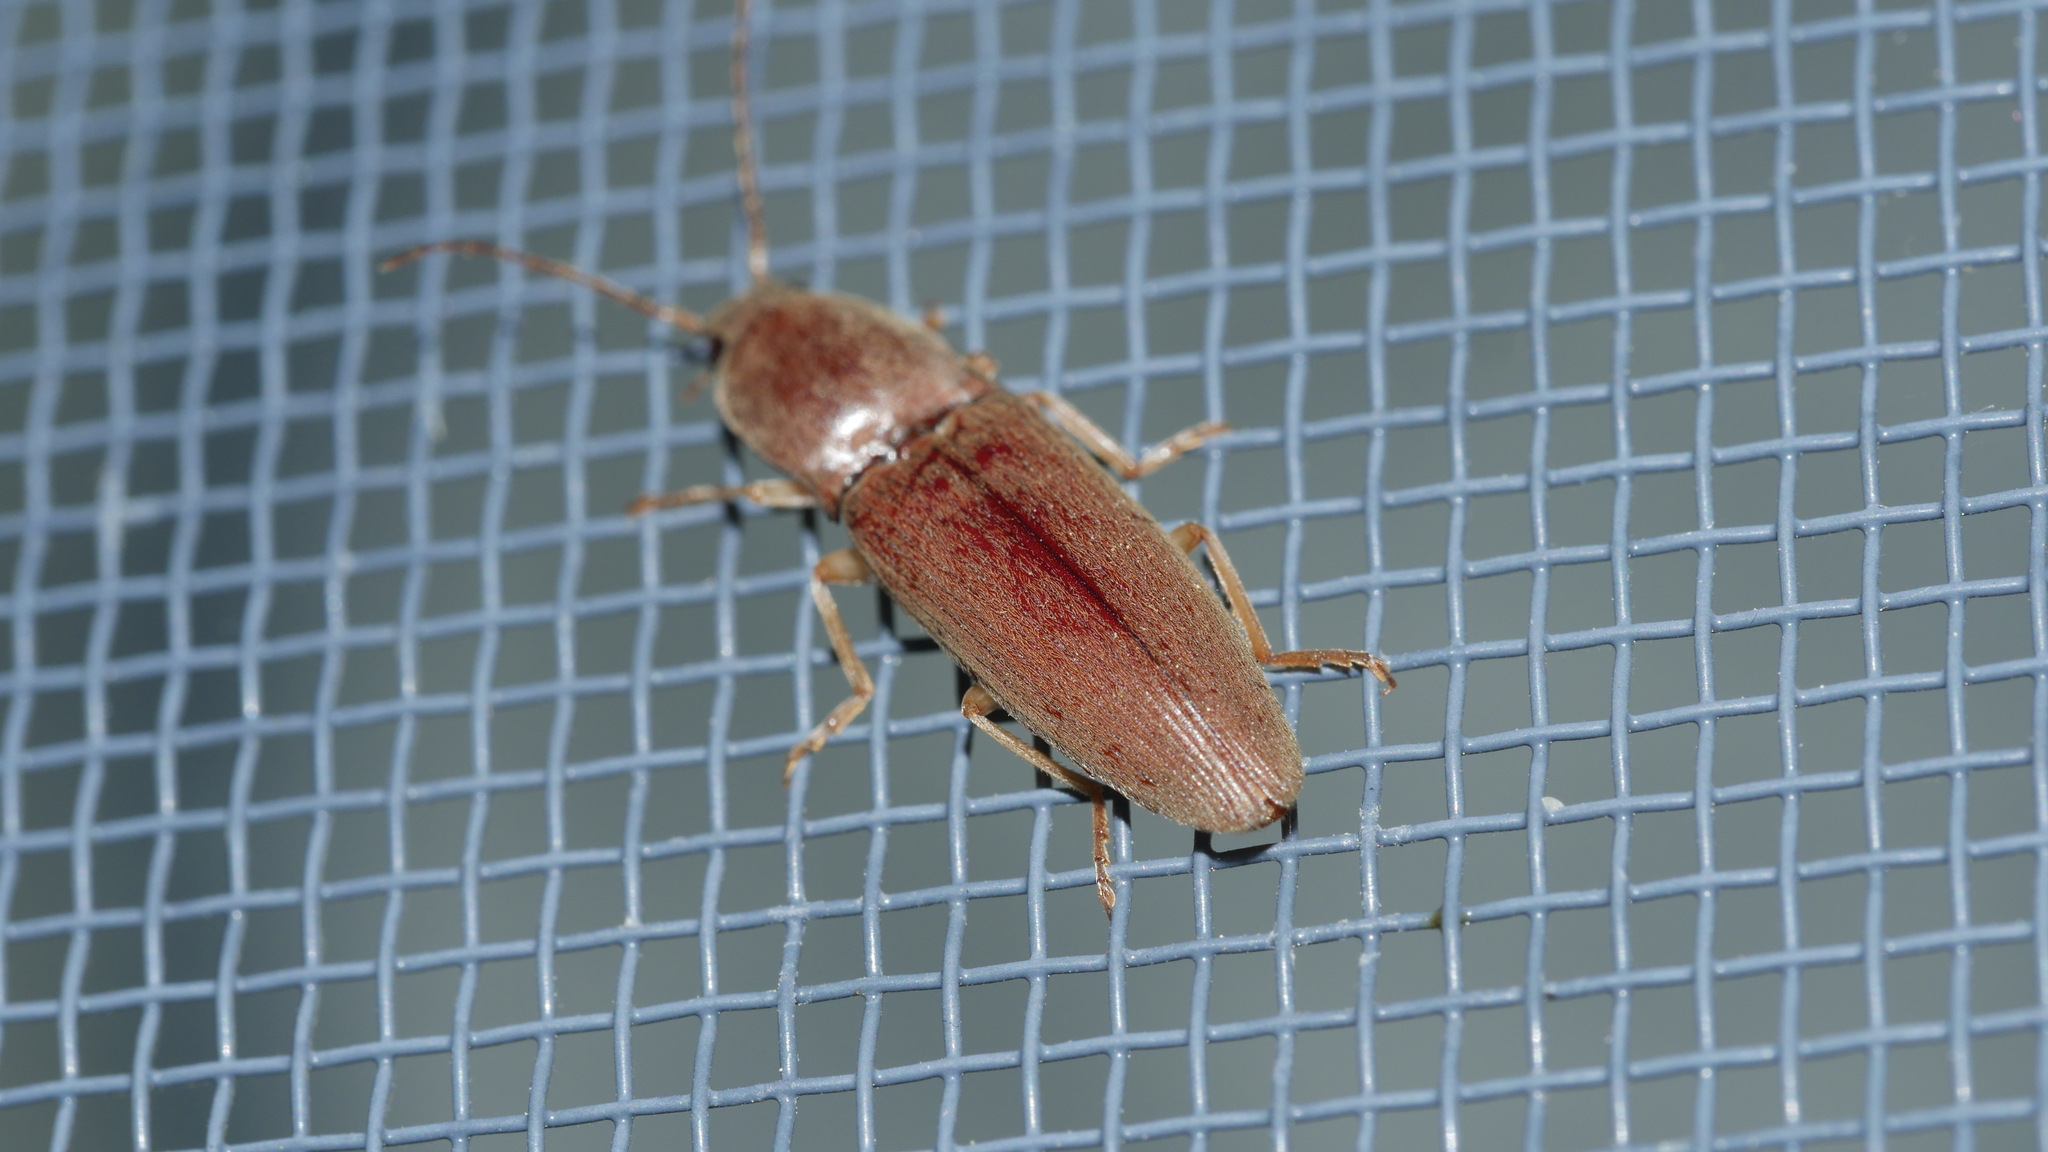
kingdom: Animalia
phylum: Arthropoda
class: Insecta
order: Coleoptera
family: Elateridae
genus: Monocrepidius
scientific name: Monocrepidius lividus
